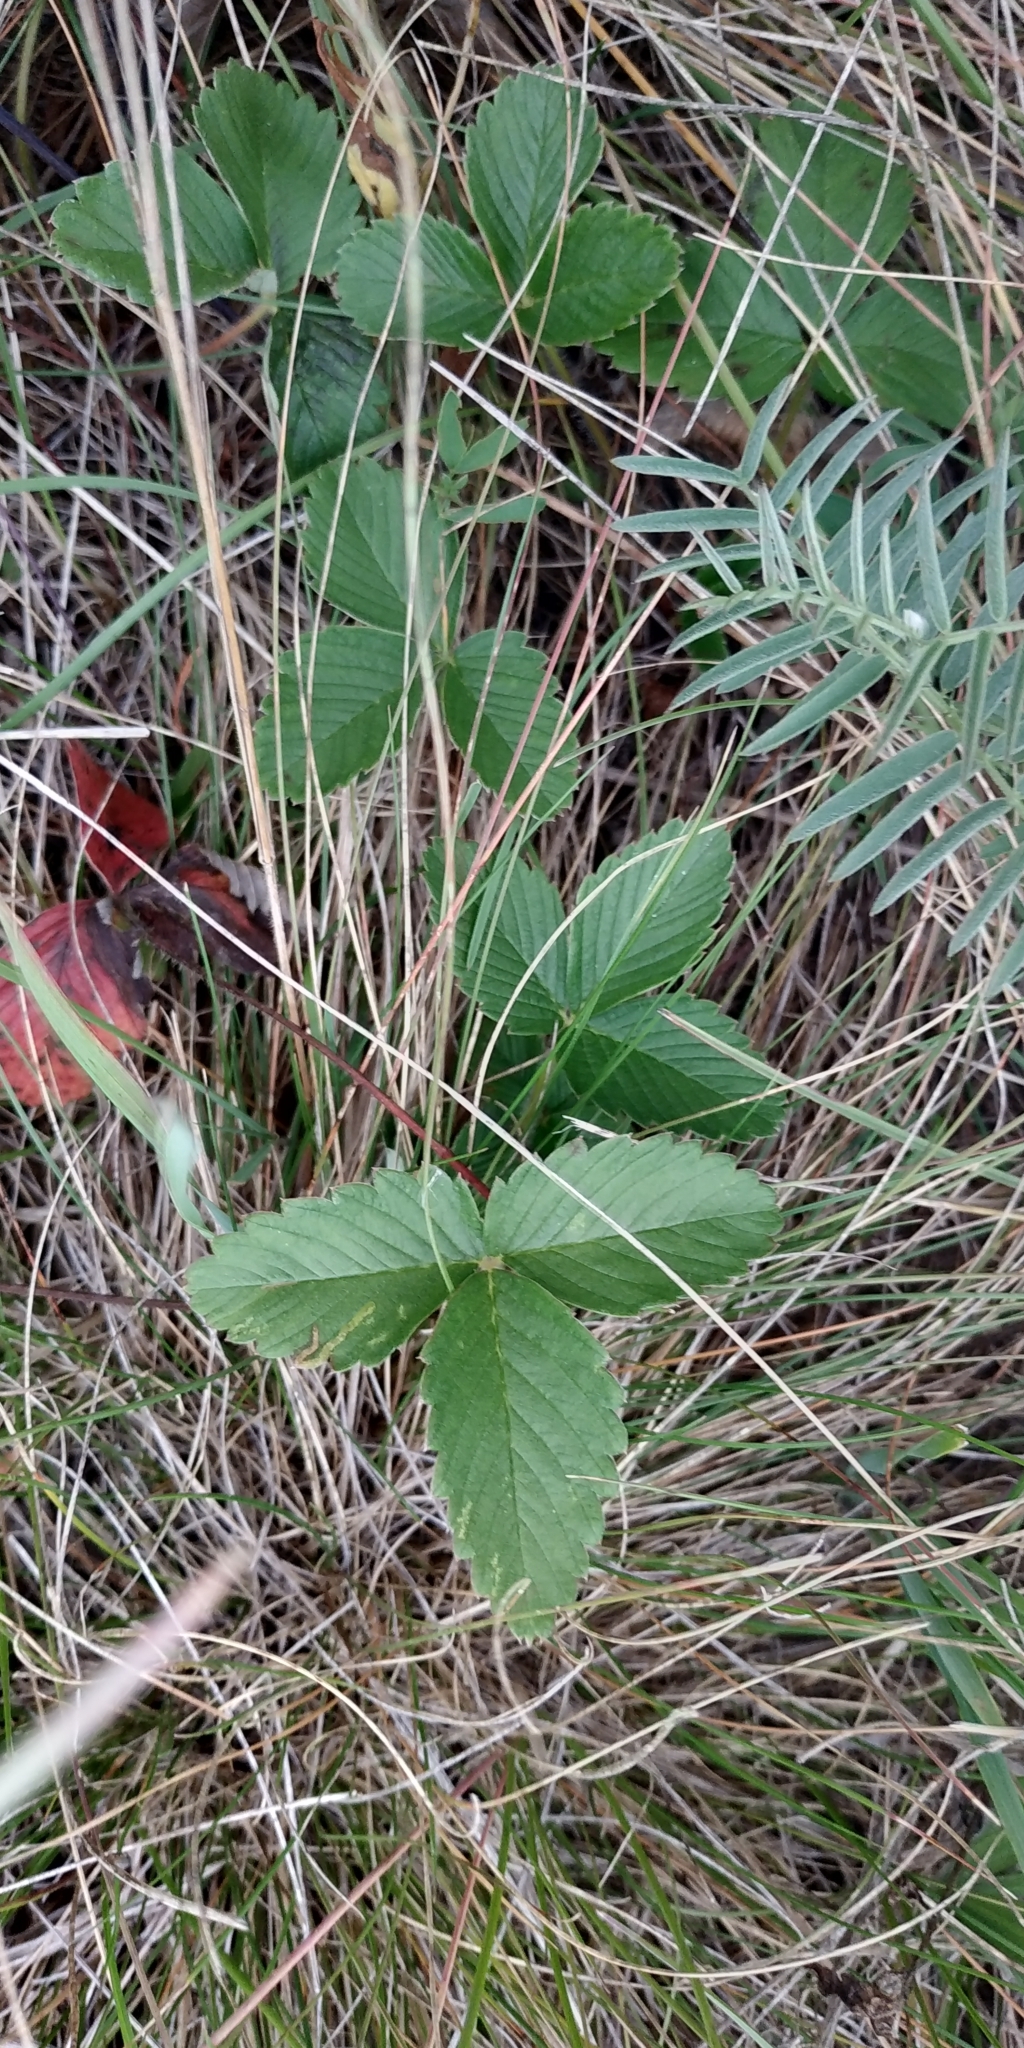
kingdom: Plantae
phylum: Tracheophyta
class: Magnoliopsida
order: Rosales
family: Rosaceae
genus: Fragaria
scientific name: Fragaria viridis
